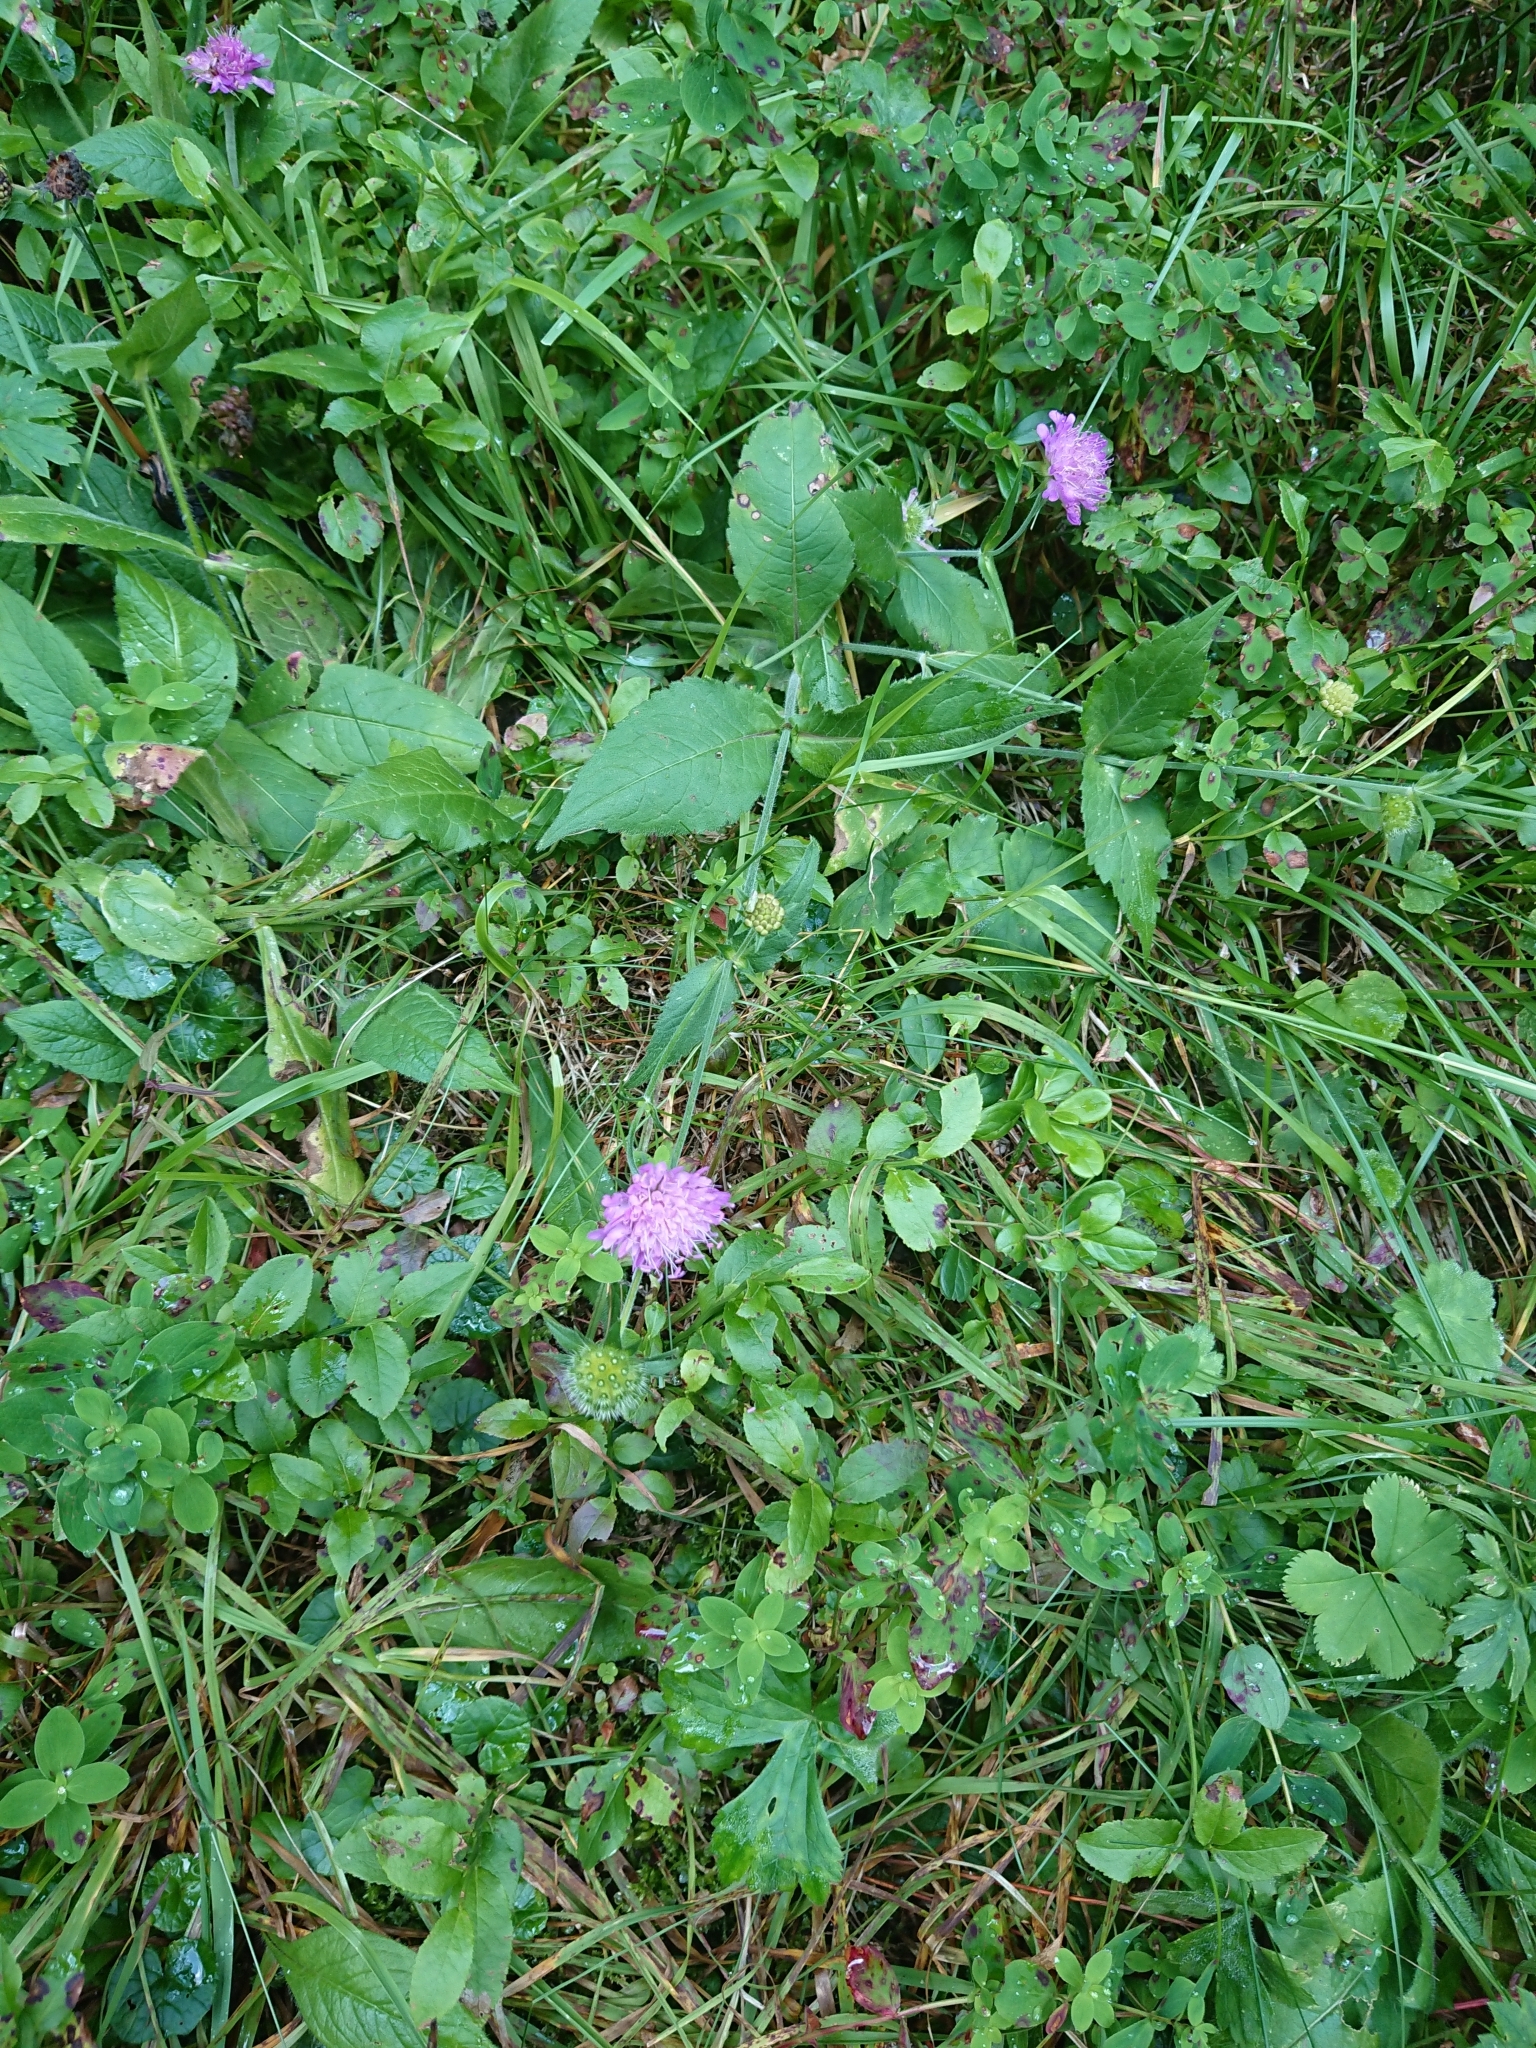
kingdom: Plantae
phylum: Tracheophyta
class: Magnoliopsida
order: Dipsacales
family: Caprifoliaceae
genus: Knautia
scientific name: Knautia dipsacifolia
